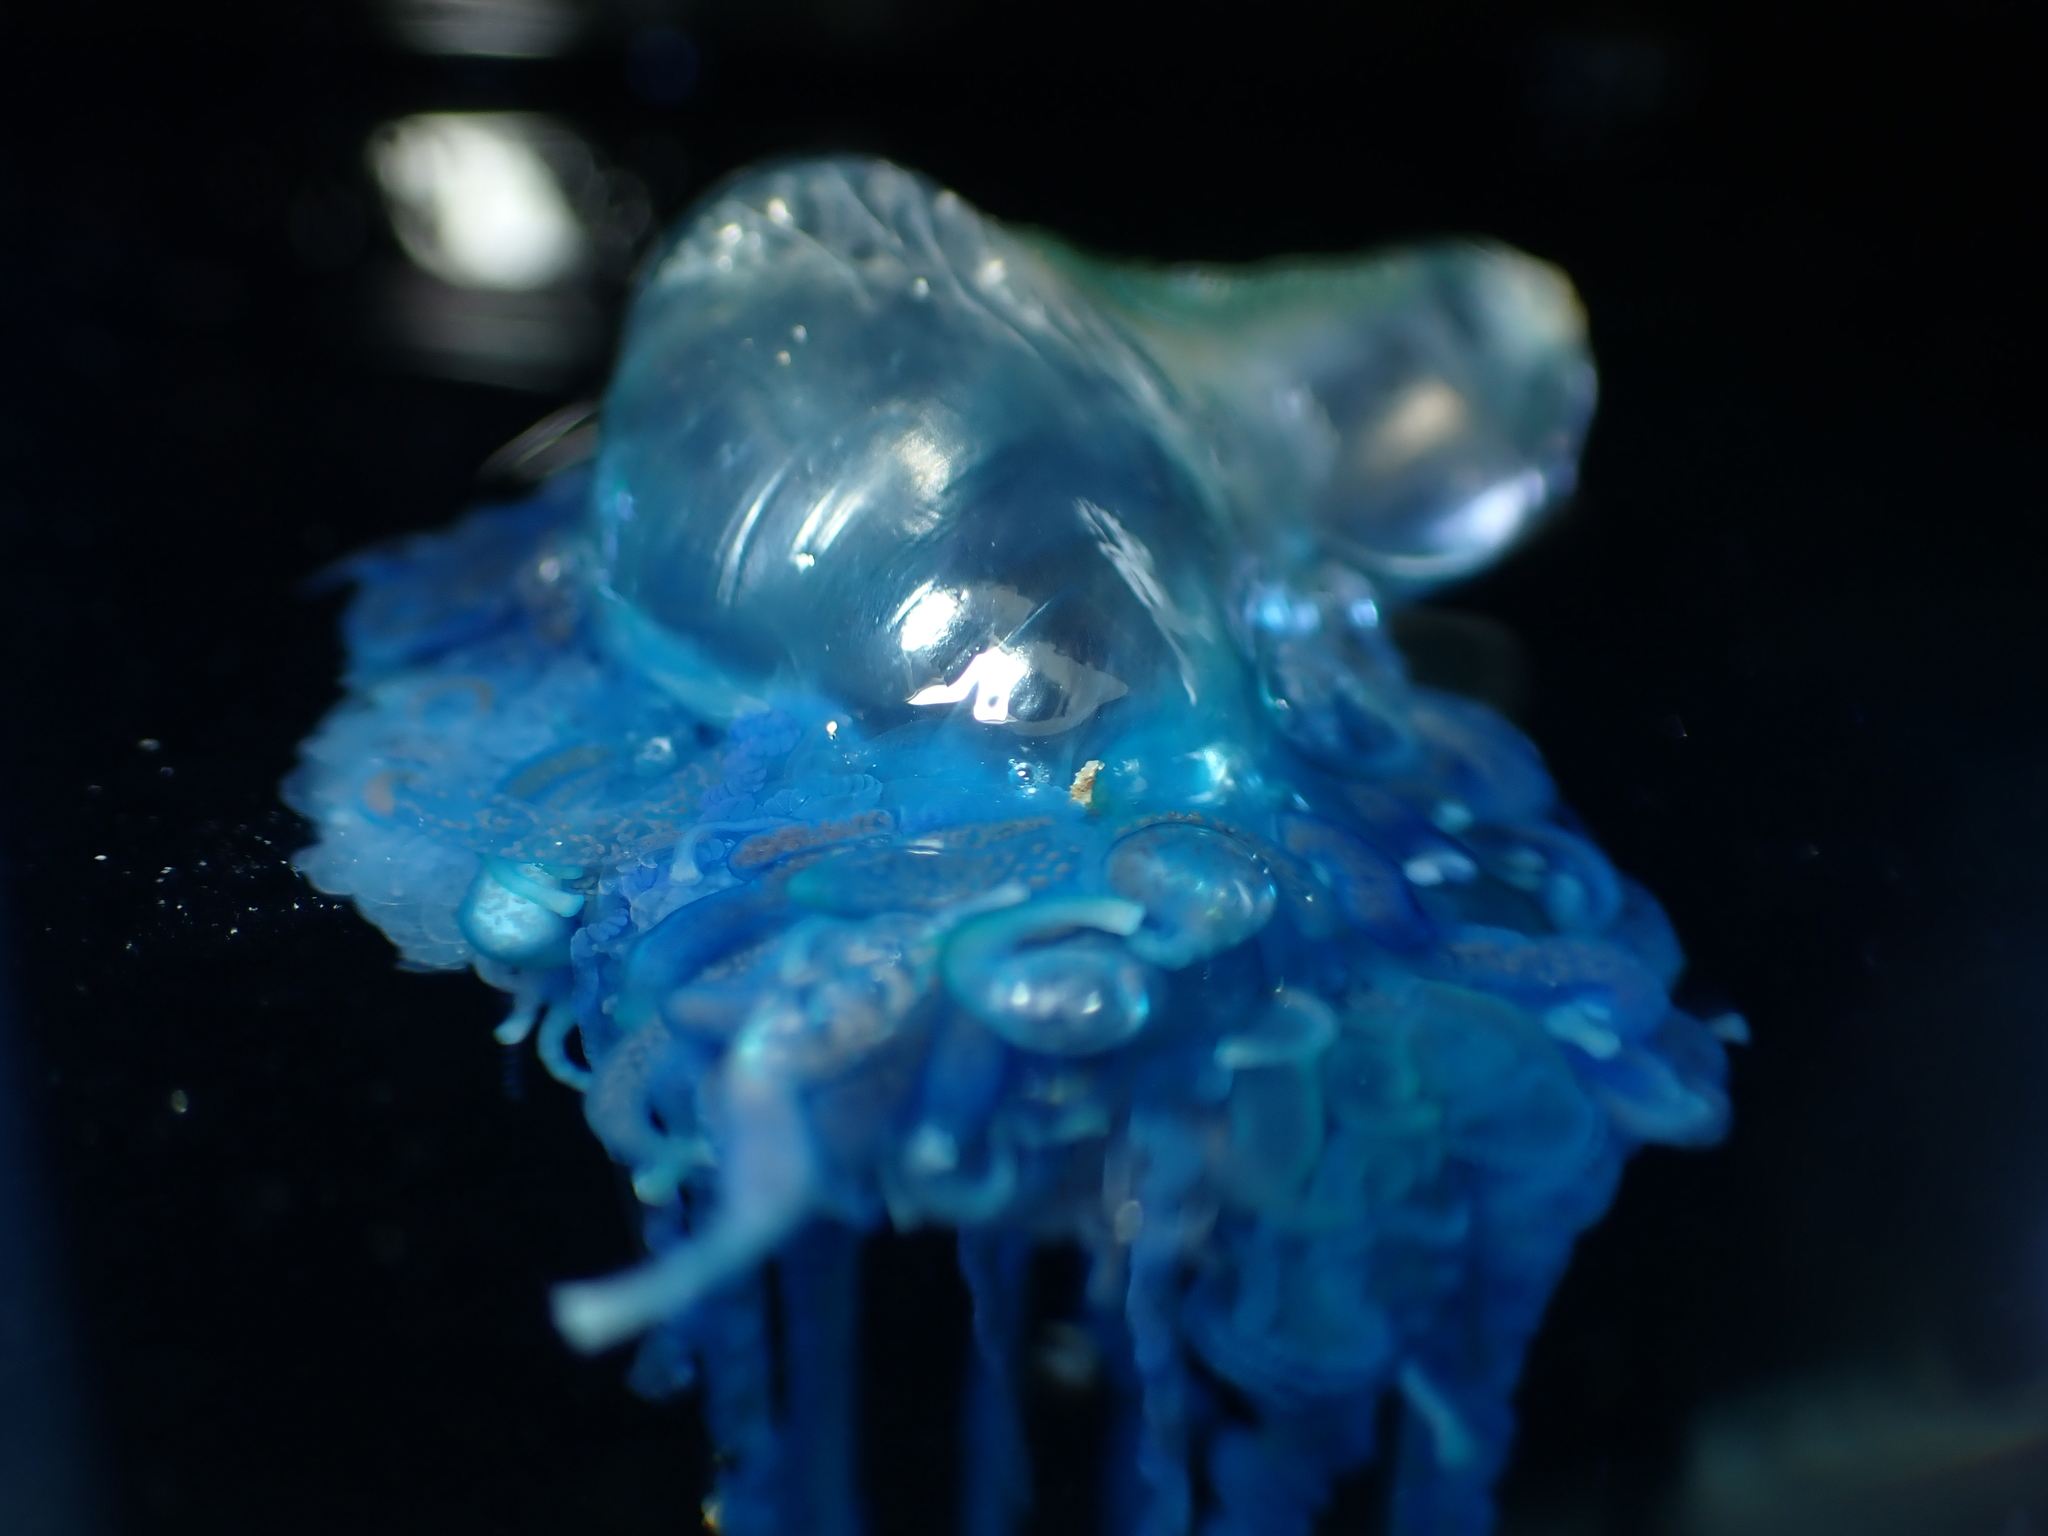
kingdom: Animalia
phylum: Cnidaria
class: Hydrozoa
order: Siphonophorae
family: Physaliidae
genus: Physalia
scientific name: Physalia physalis
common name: Portuguese man-of-war
